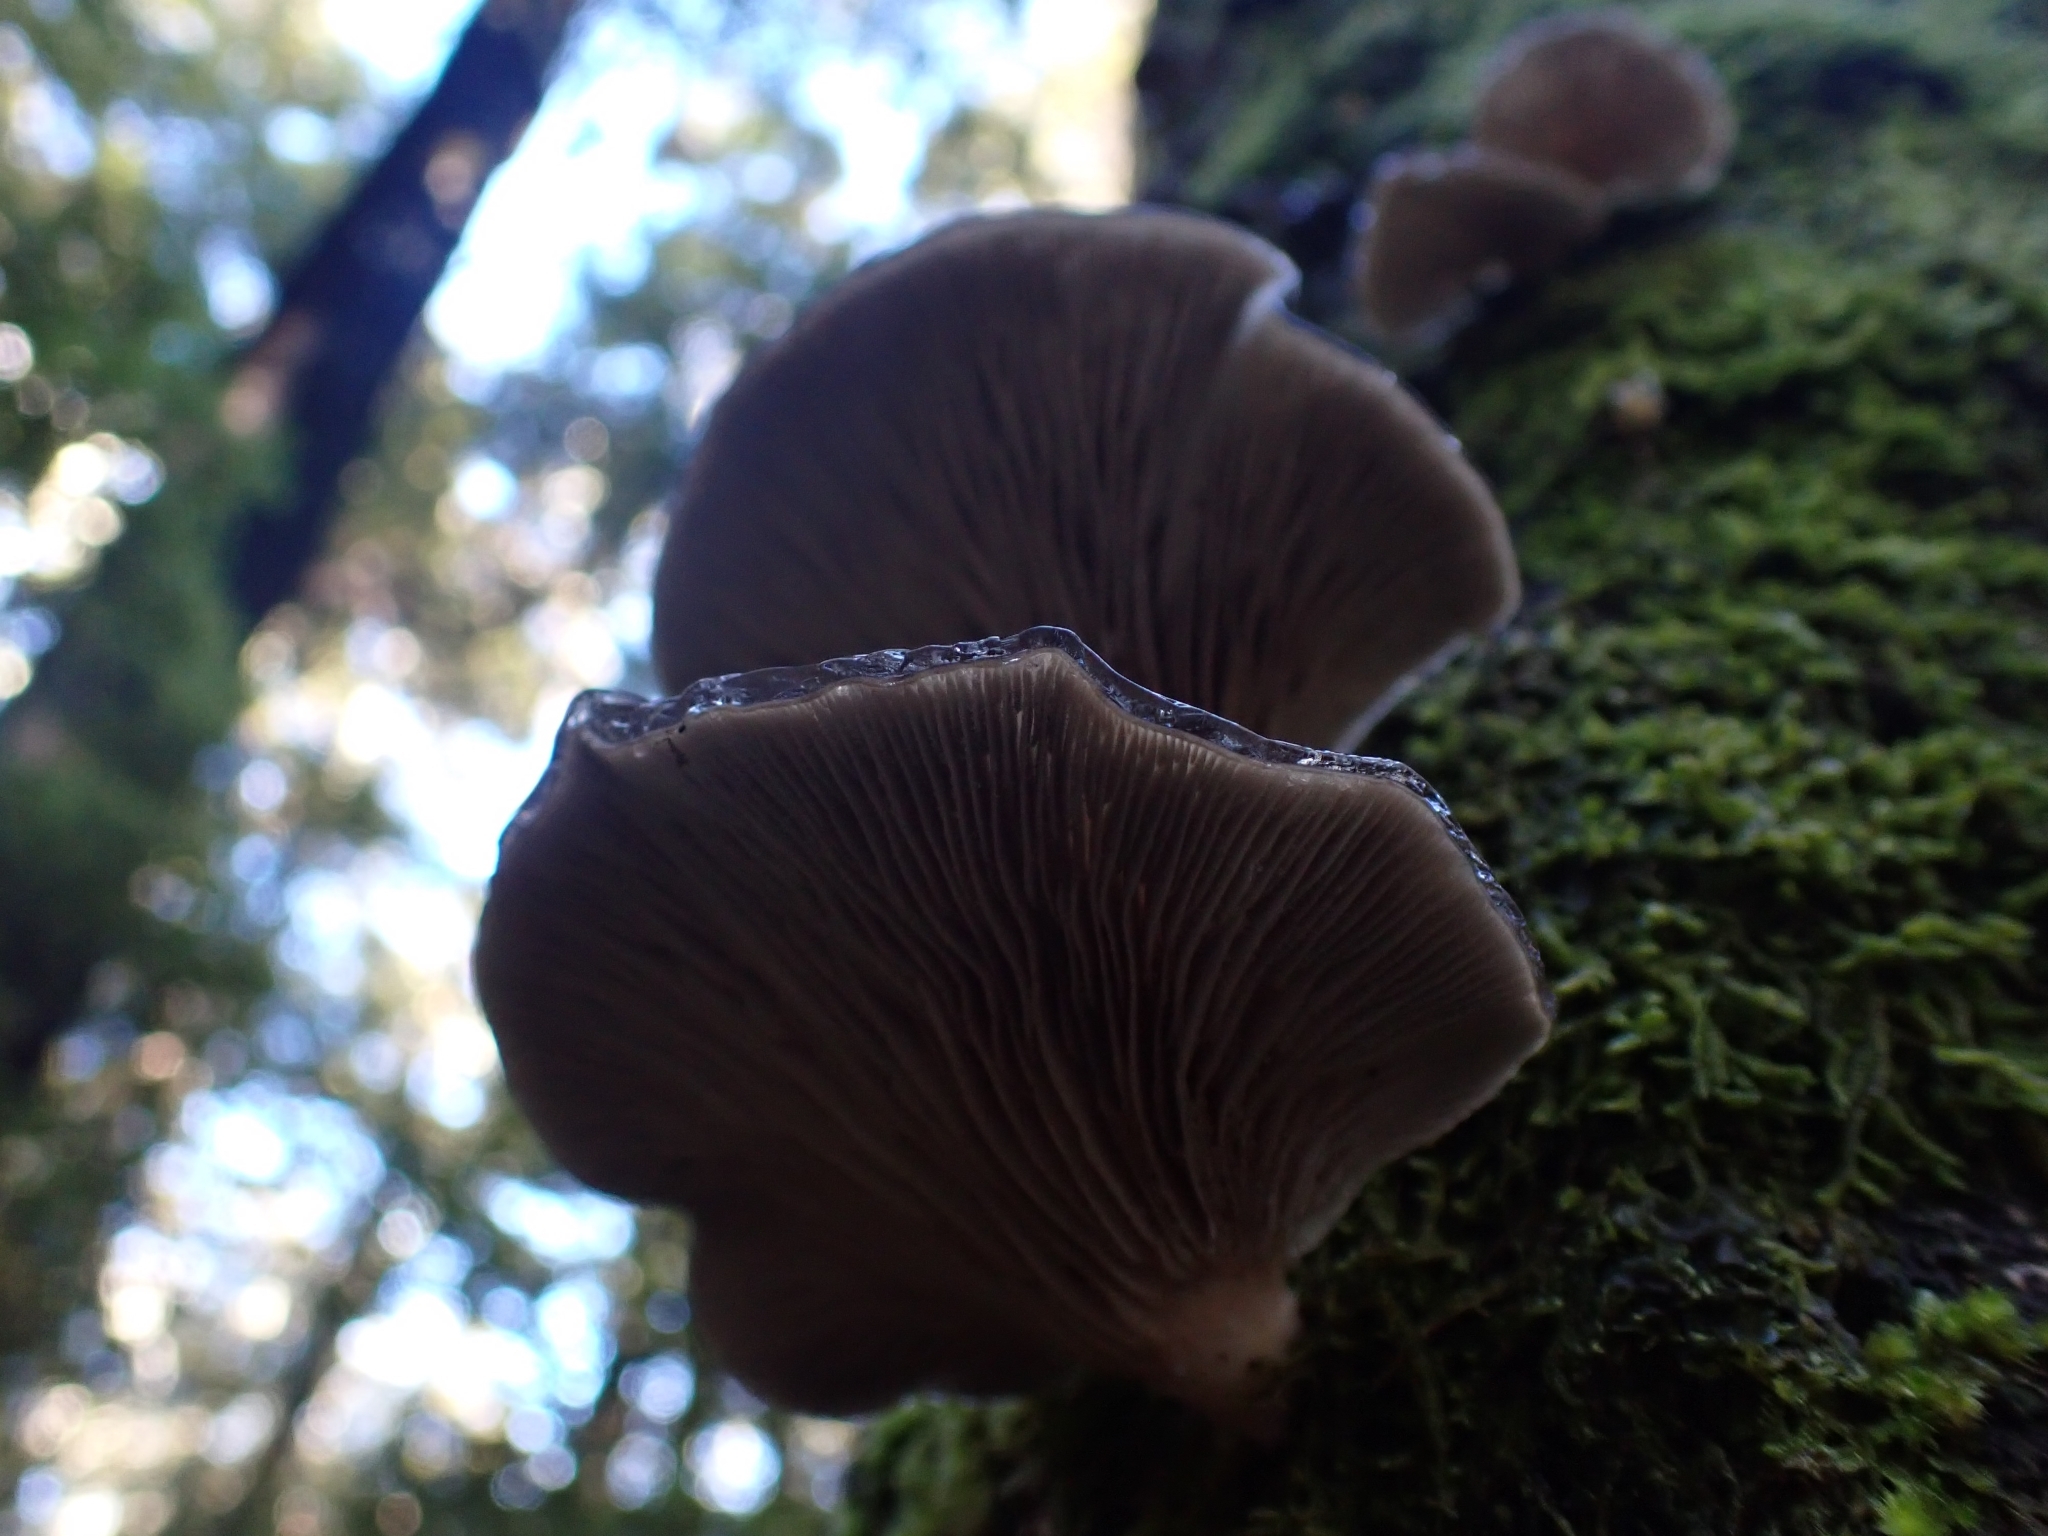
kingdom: Fungi
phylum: Basidiomycota
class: Agaricomycetes
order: Agaricales
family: Pleurotaceae
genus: Pleurotus
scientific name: Pleurotus purpureo-olivaceus
